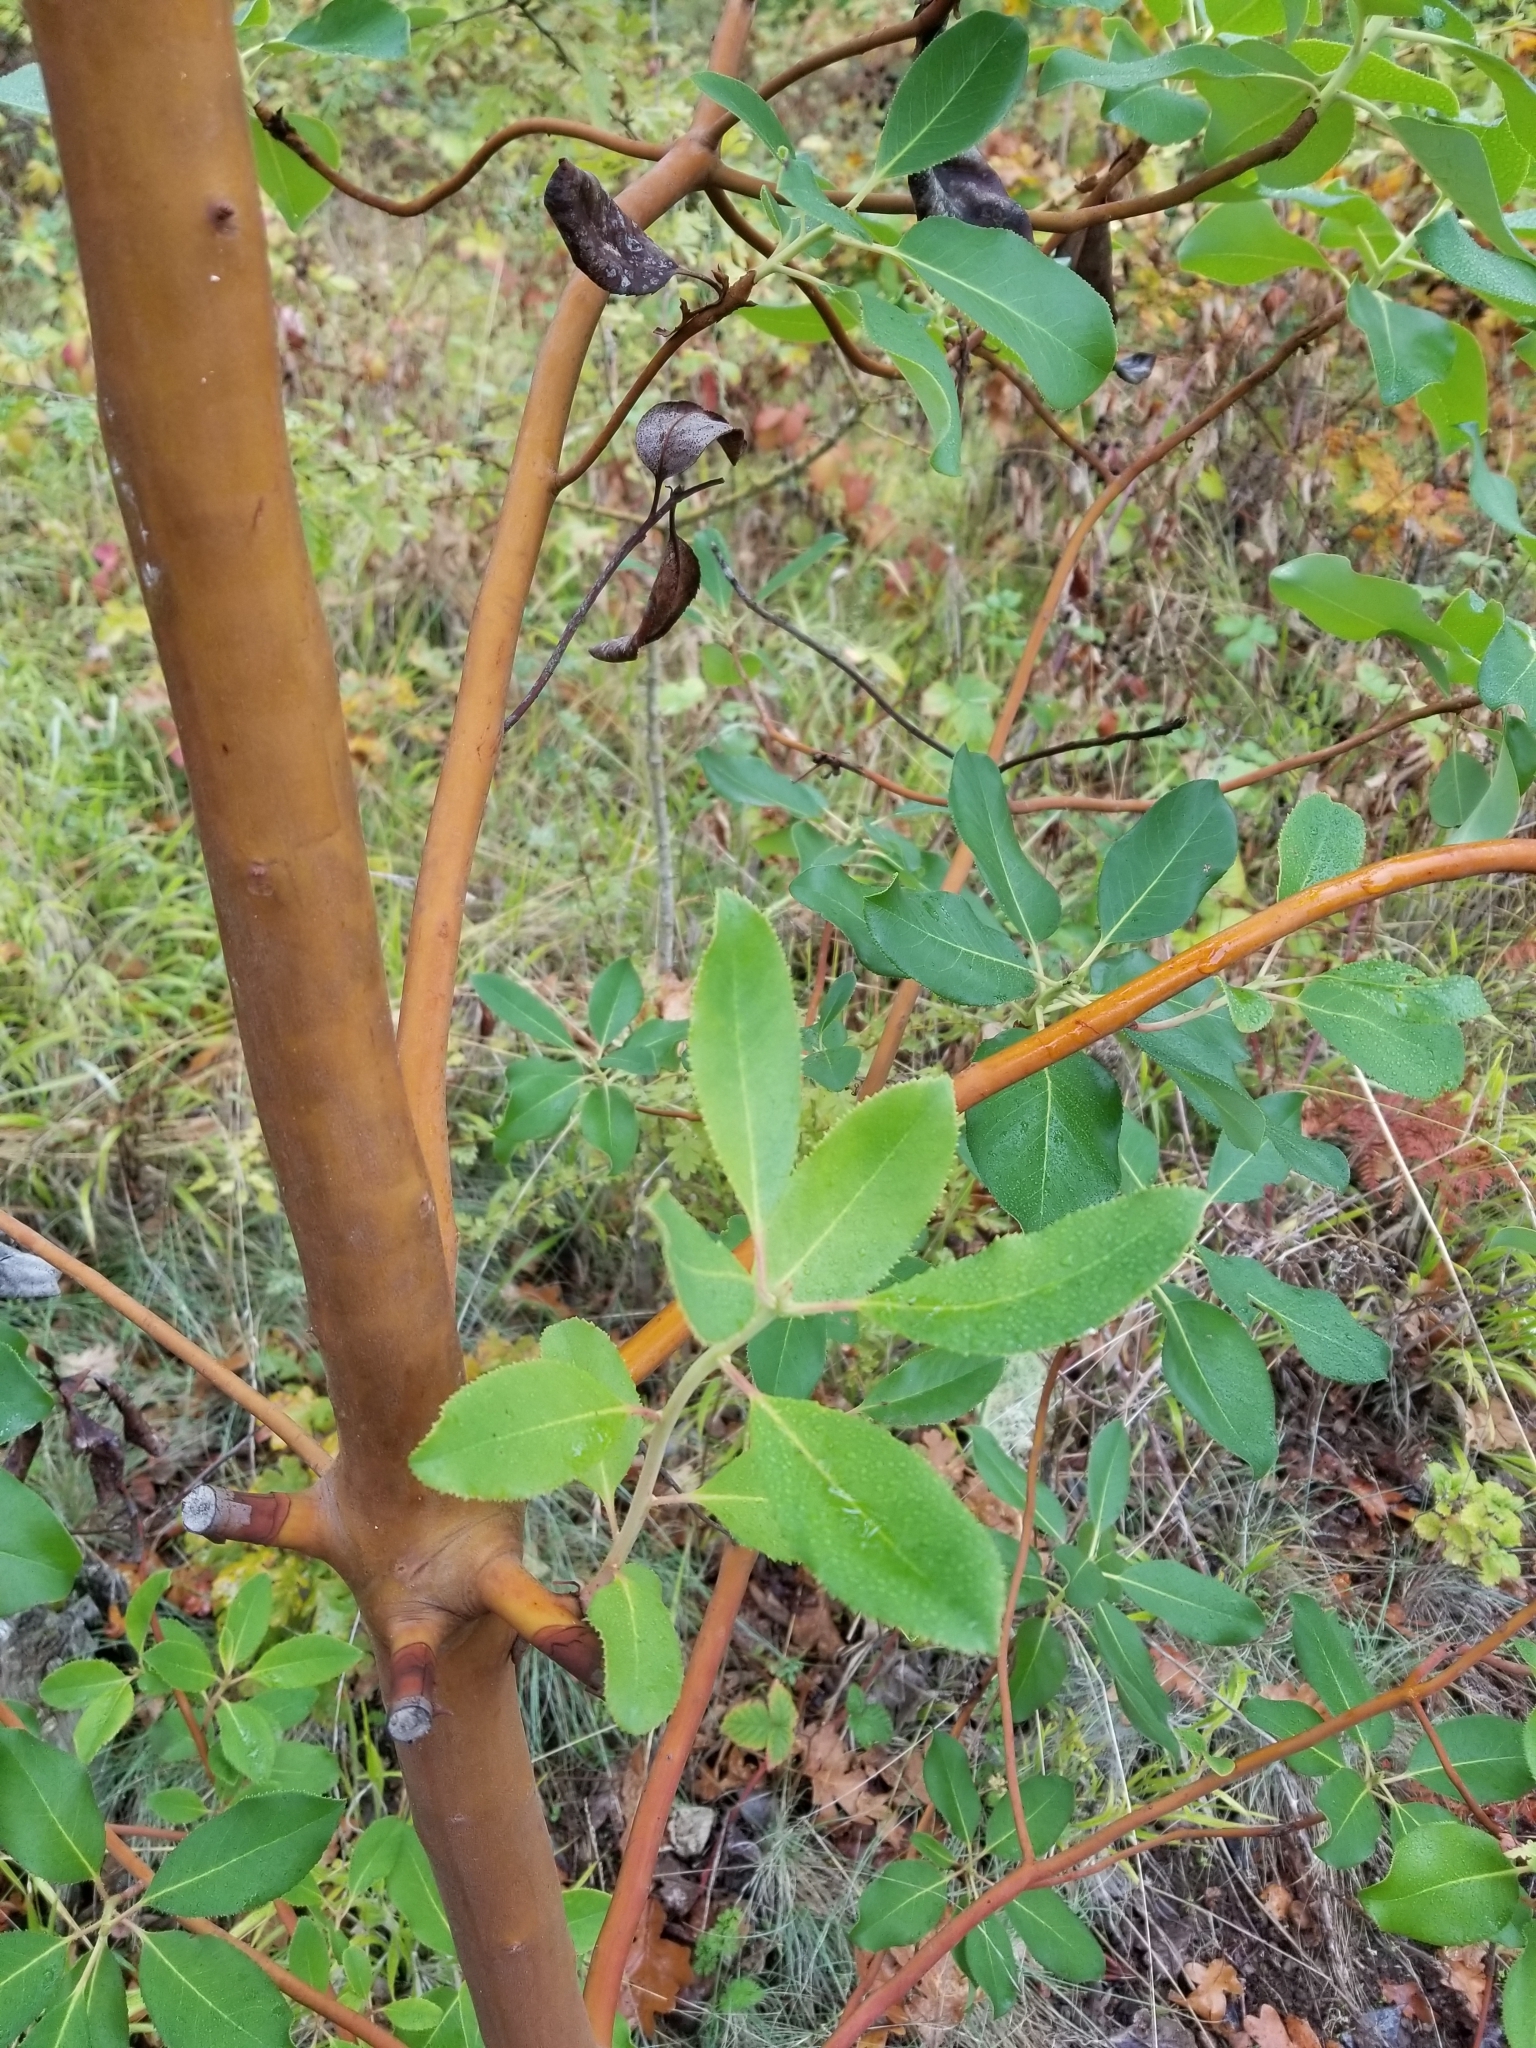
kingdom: Plantae
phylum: Tracheophyta
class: Magnoliopsida
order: Ericales
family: Ericaceae
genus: Arbutus
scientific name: Arbutus menziesii
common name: Pacific madrone
